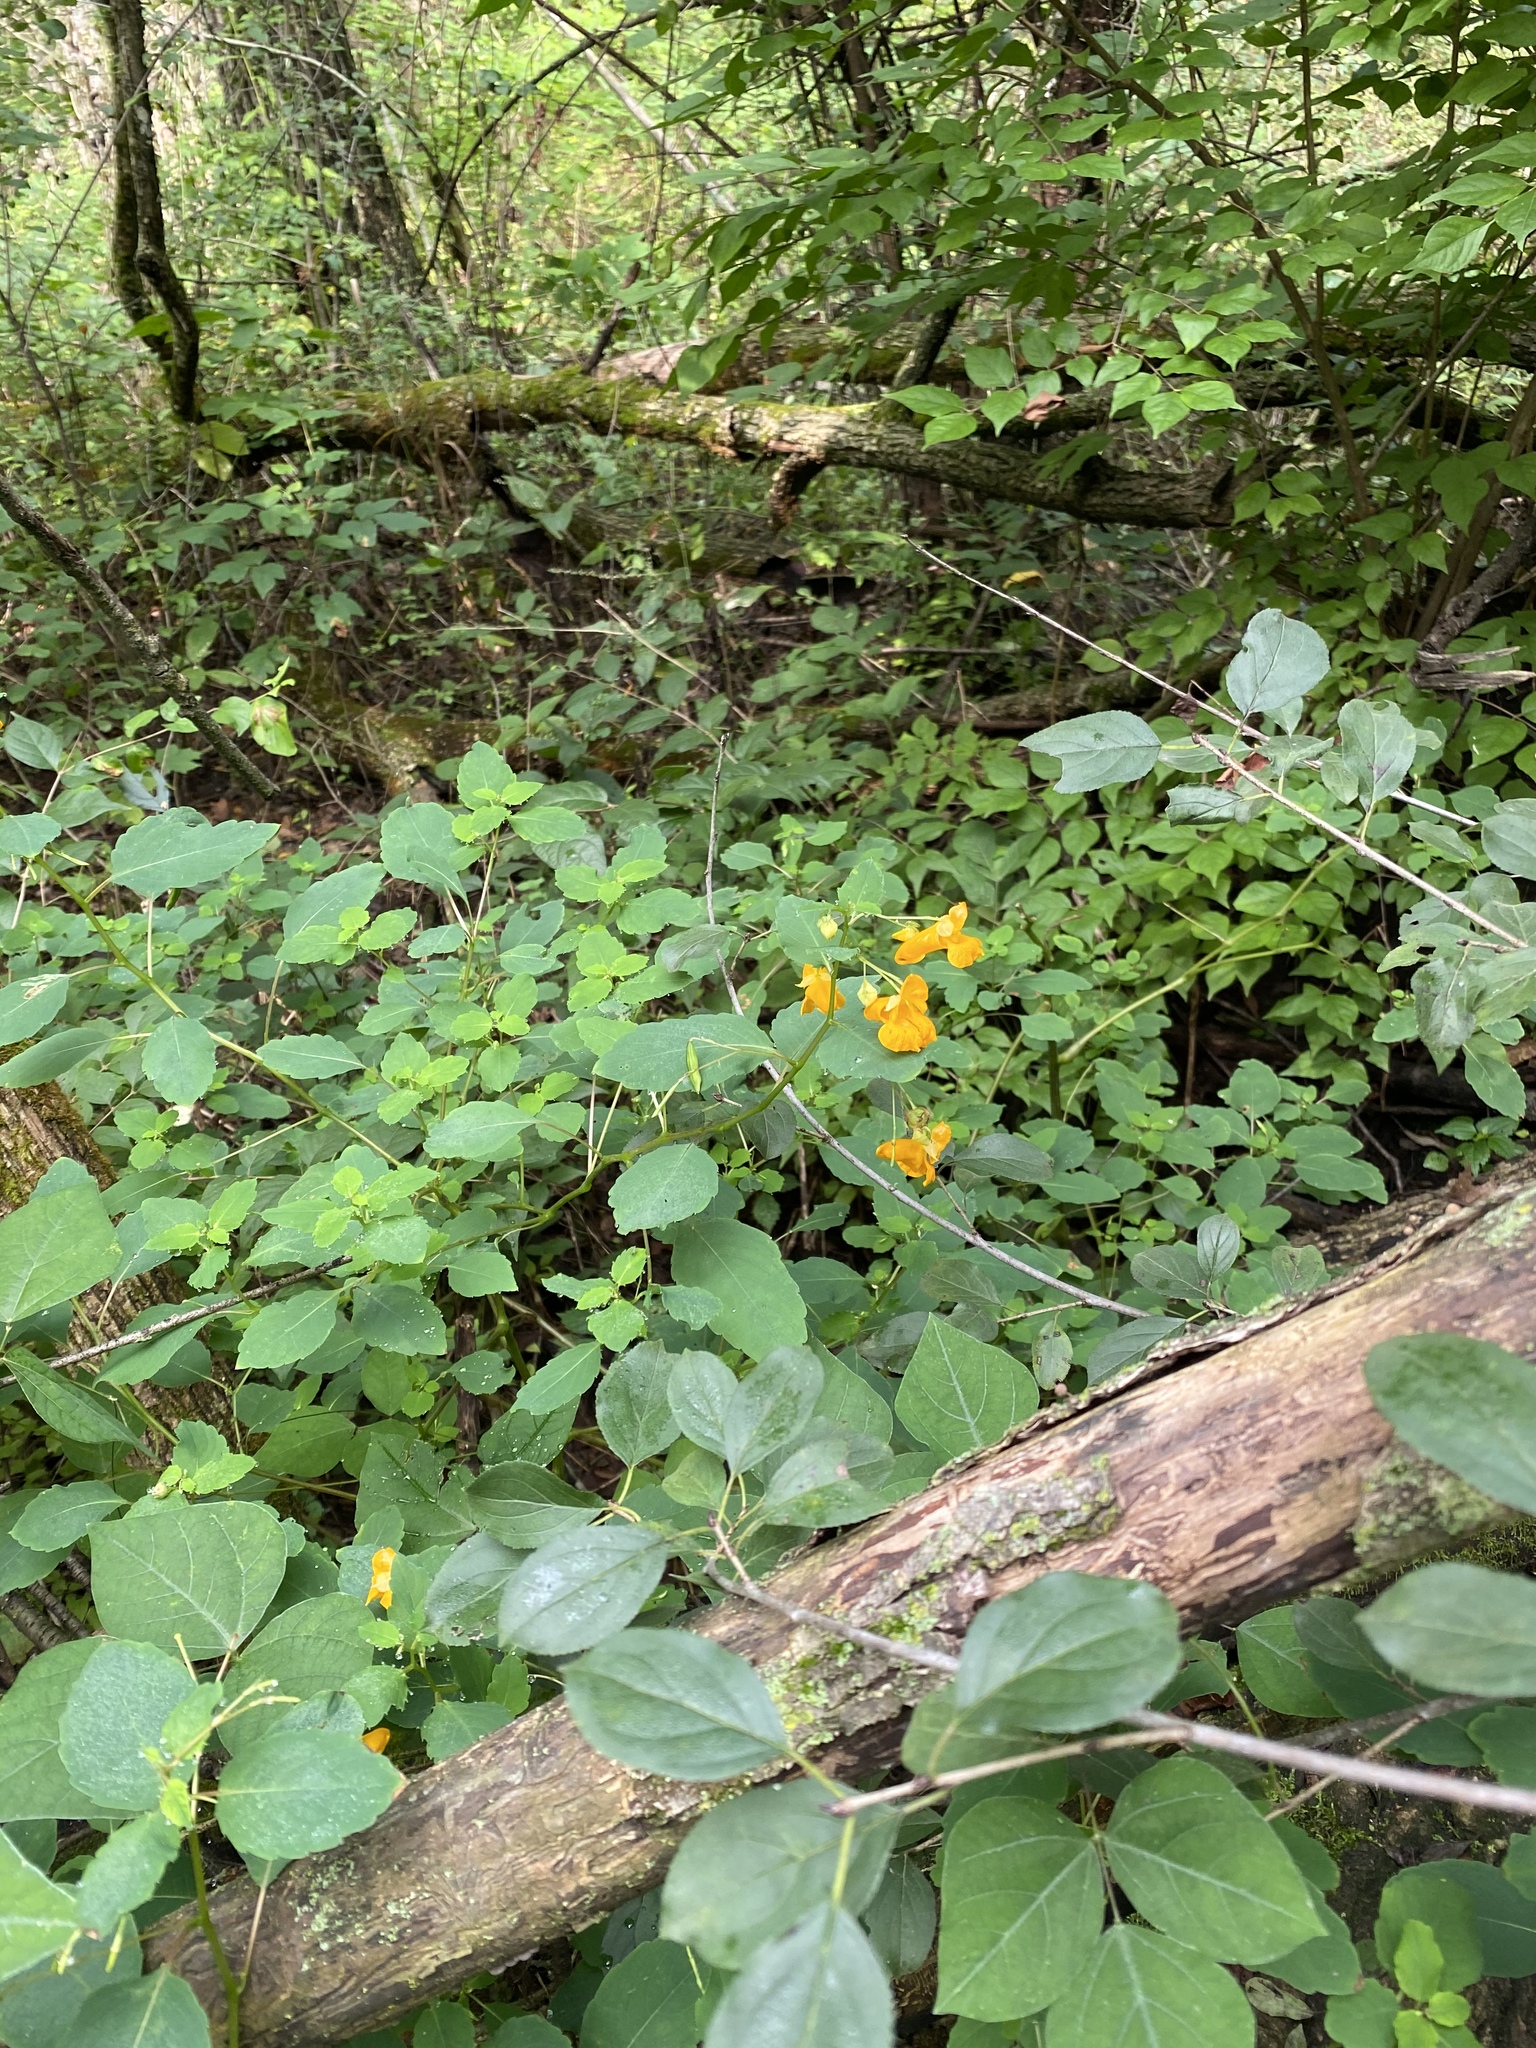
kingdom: Plantae
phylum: Tracheophyta
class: Magnoliopsida
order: Ericales
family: Balsaminaceae
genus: Impatiens
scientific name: Impatiens capensis
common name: Orange balsam
